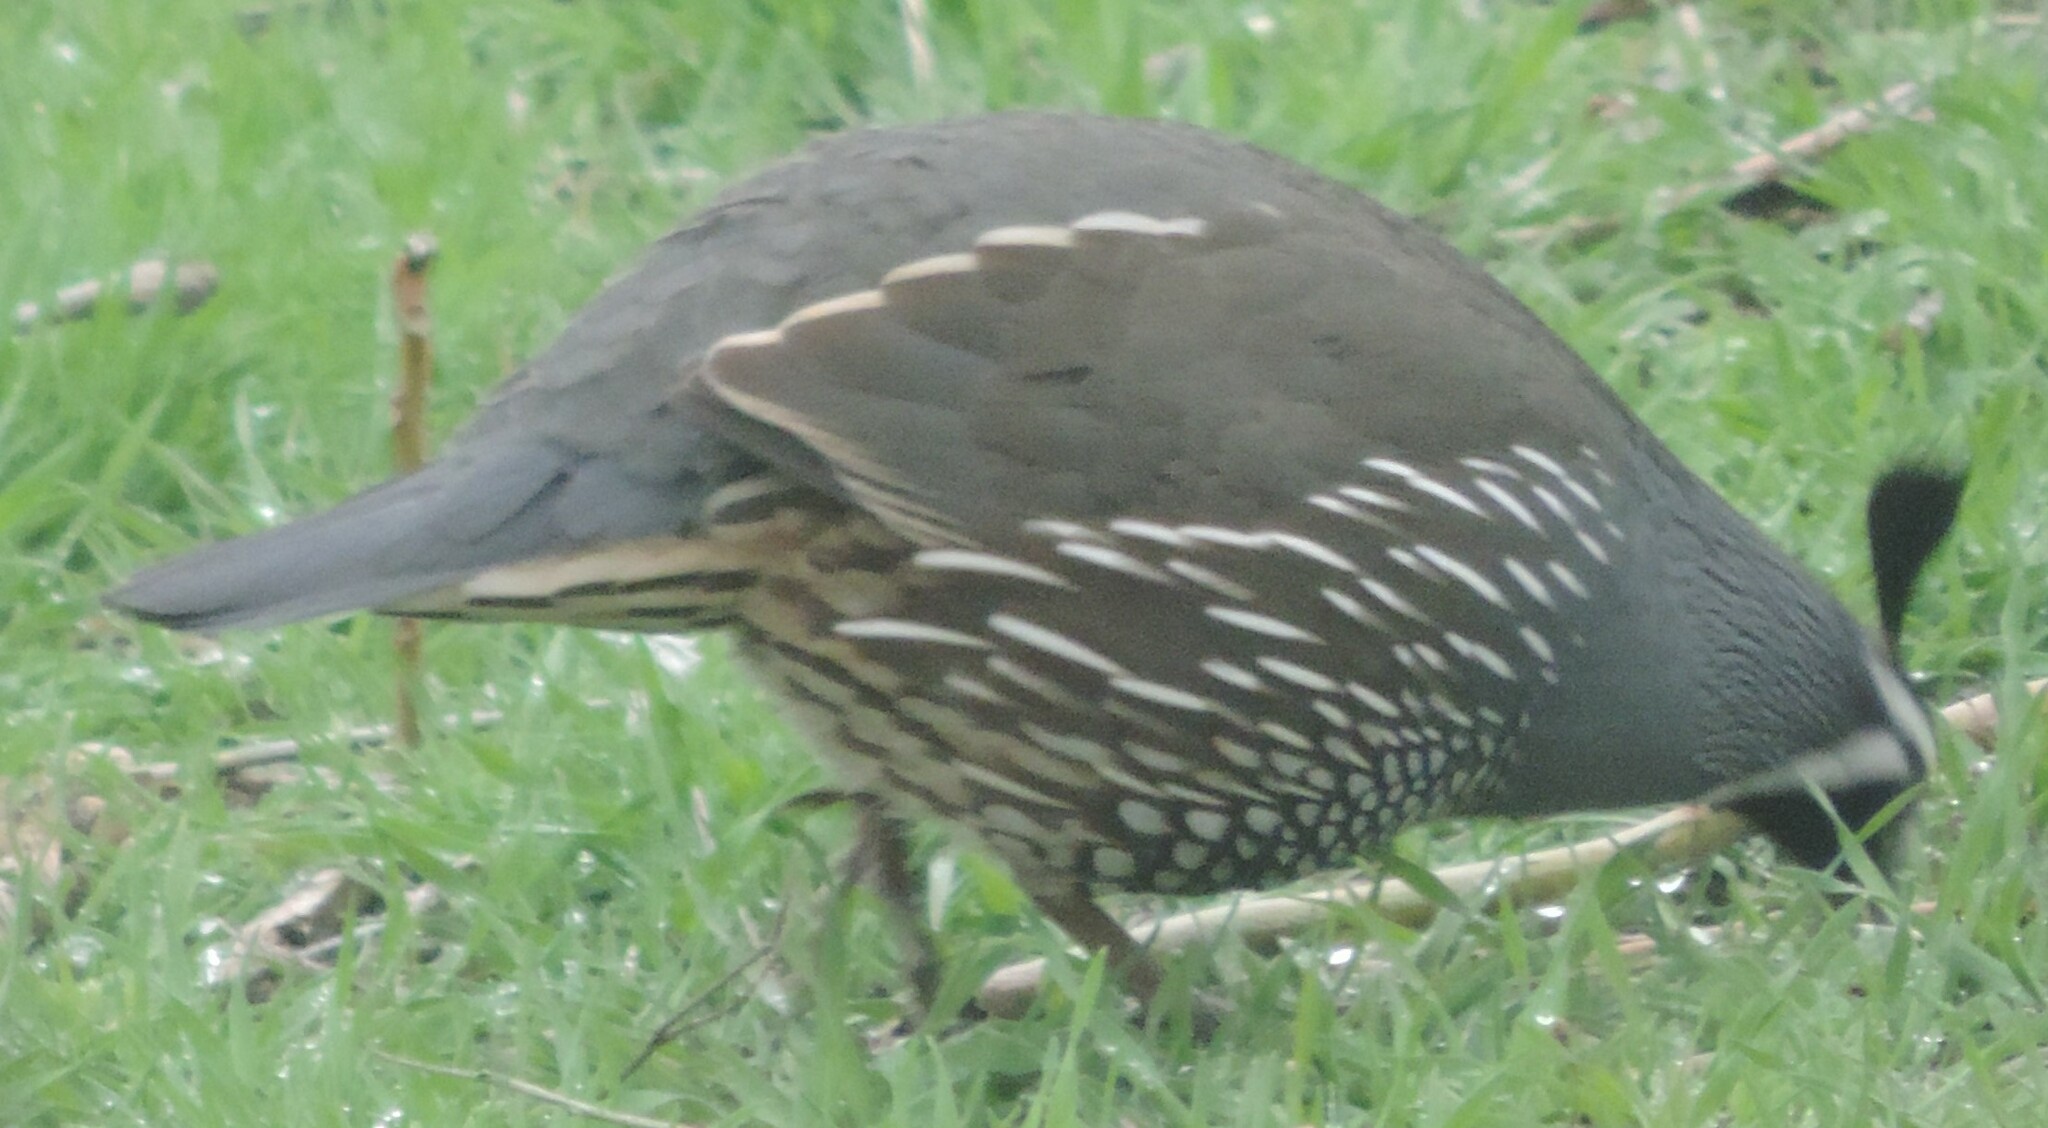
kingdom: Animalia
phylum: Chordata
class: Aves
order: Galliformes
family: Odontophoridae
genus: Callipepla
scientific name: Callipepla californica
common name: California quail
